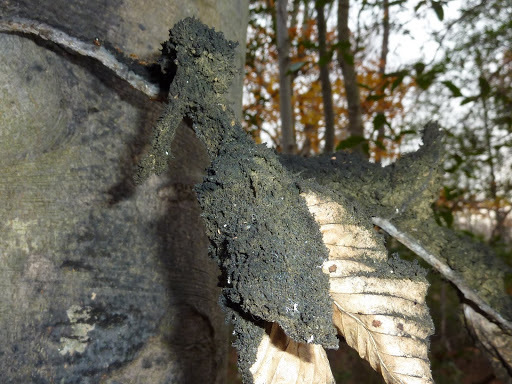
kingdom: Fungi
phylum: Ascomycota
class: Dothideomycetes
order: Capnodiales
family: Capnodiaceae
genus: Scorias
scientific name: Scorias spongiosa
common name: Black sooty mold
